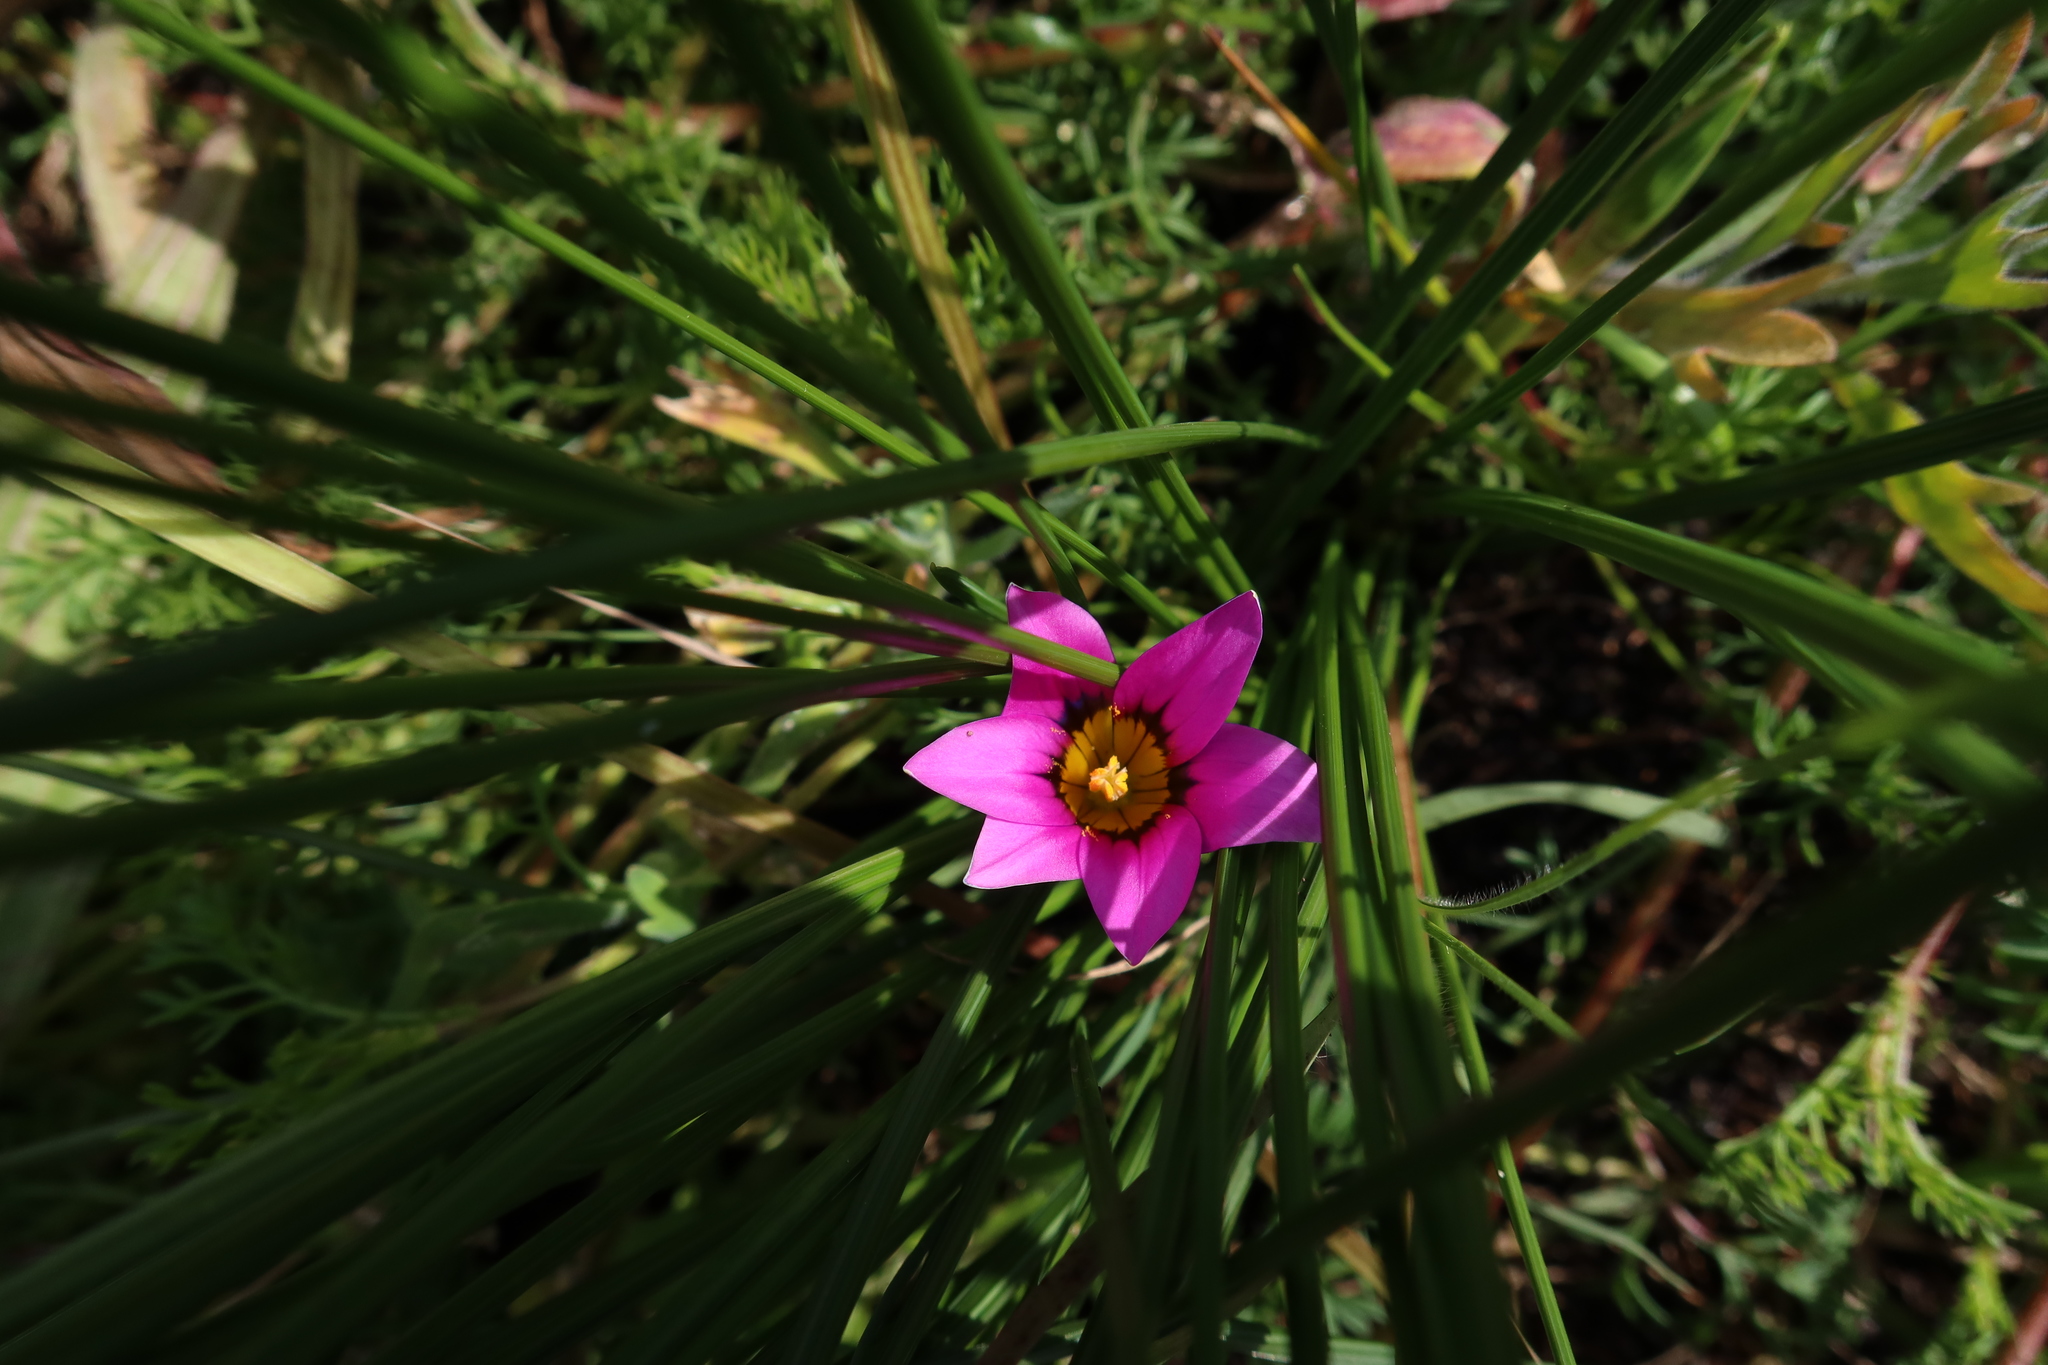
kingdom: Plantae
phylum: Tracheophyta
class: Liliopsida
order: Asparagales
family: Iridaceae
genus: Romulea
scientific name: Romulea hirsuta
